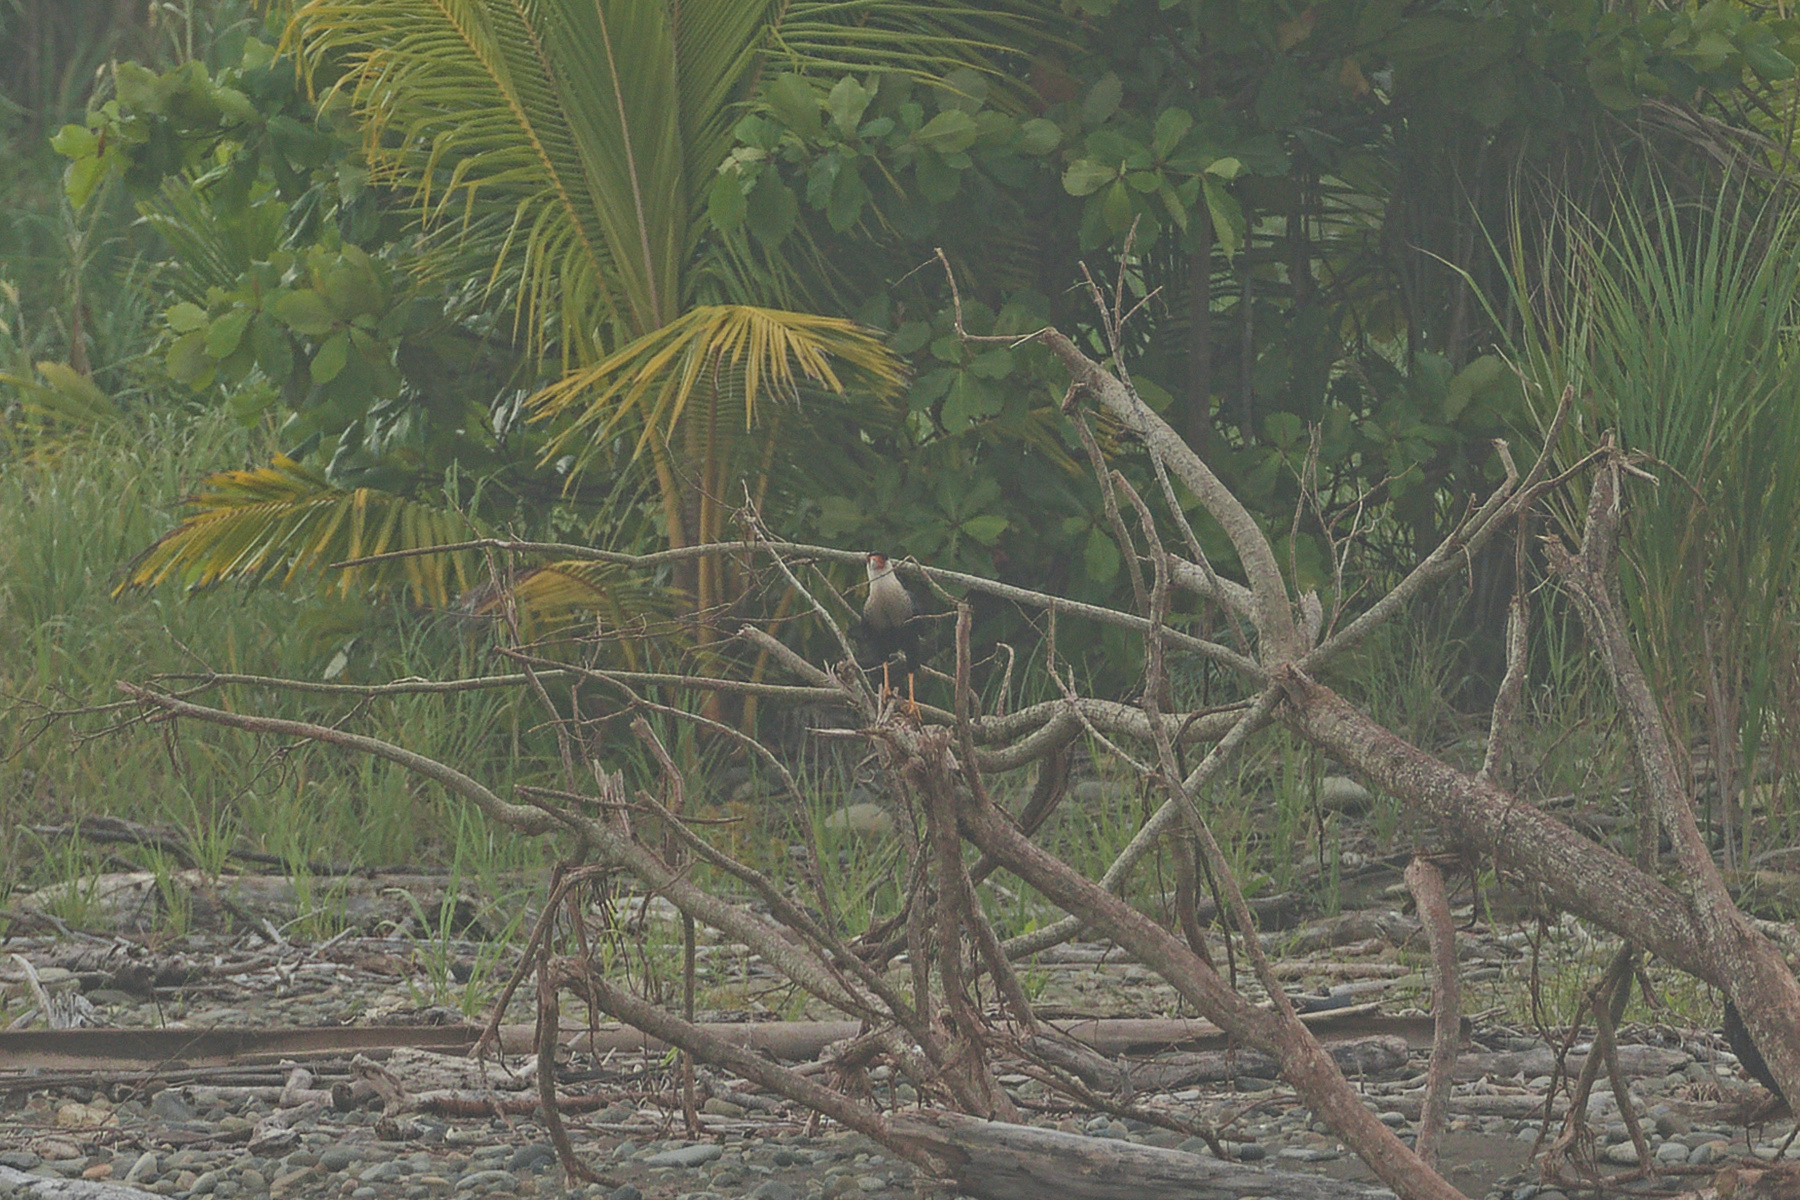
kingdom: Animalia
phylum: Chordata
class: Aves
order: Falconiformes
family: Falconidae
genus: Caracara
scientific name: Caracara plancus
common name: Southern caracara
